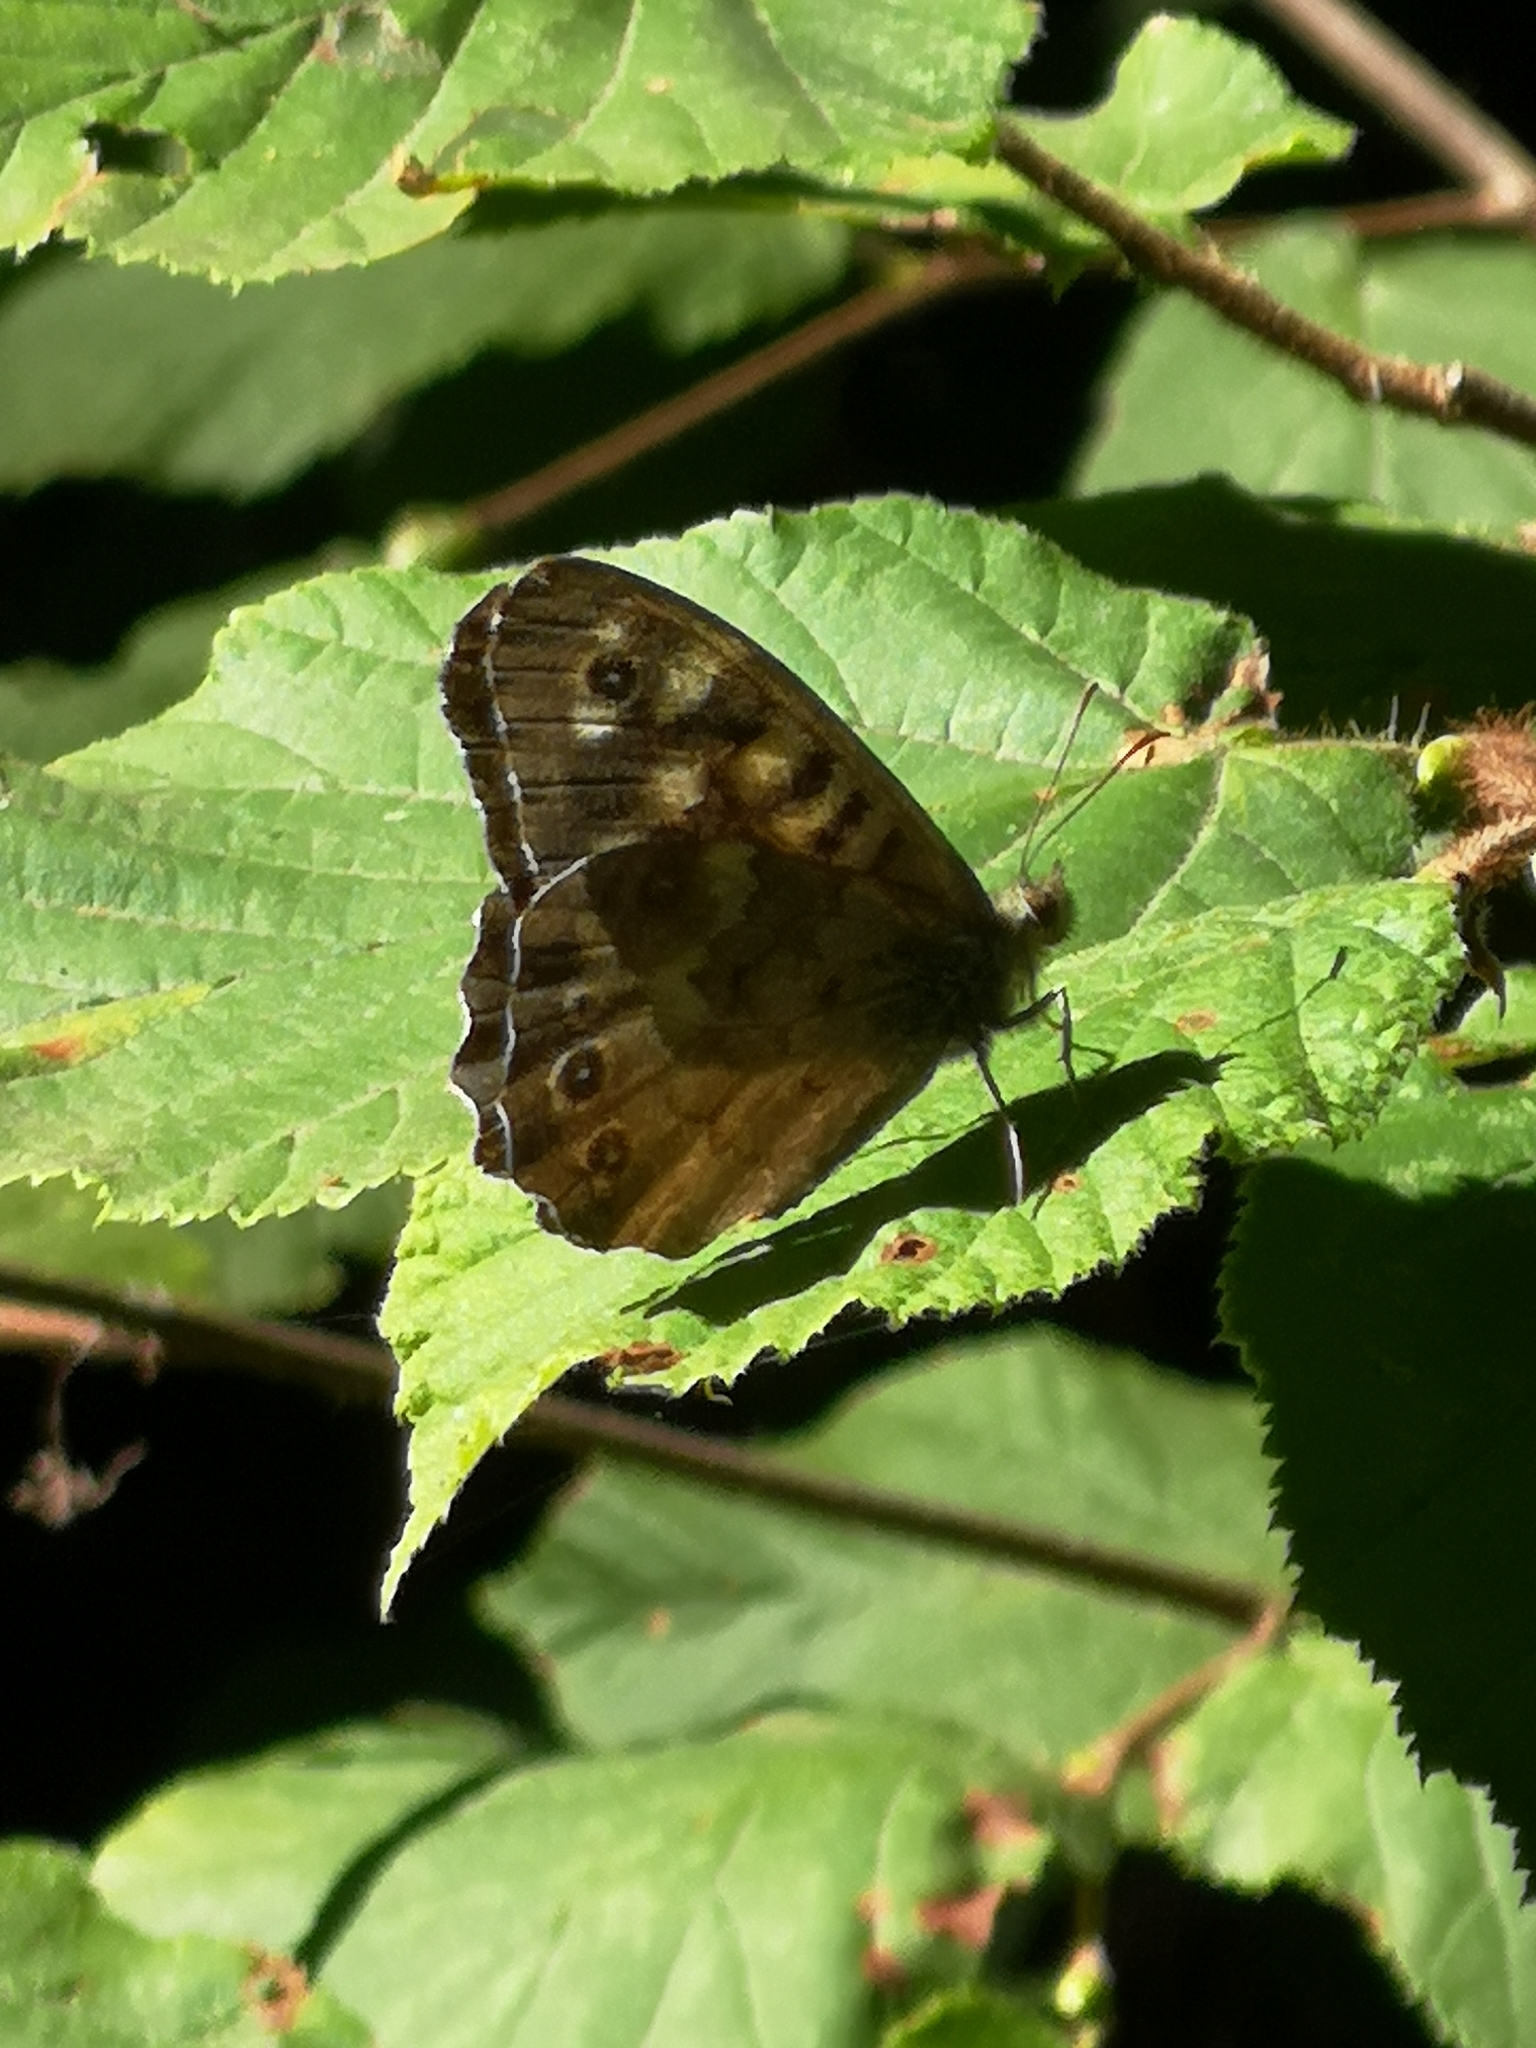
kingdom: Animalia
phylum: Arthropoda
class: Insecta
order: Lepidoptera
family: Nymphalidae
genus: Pararge
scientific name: Pararge aegeria
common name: Speckled wood
